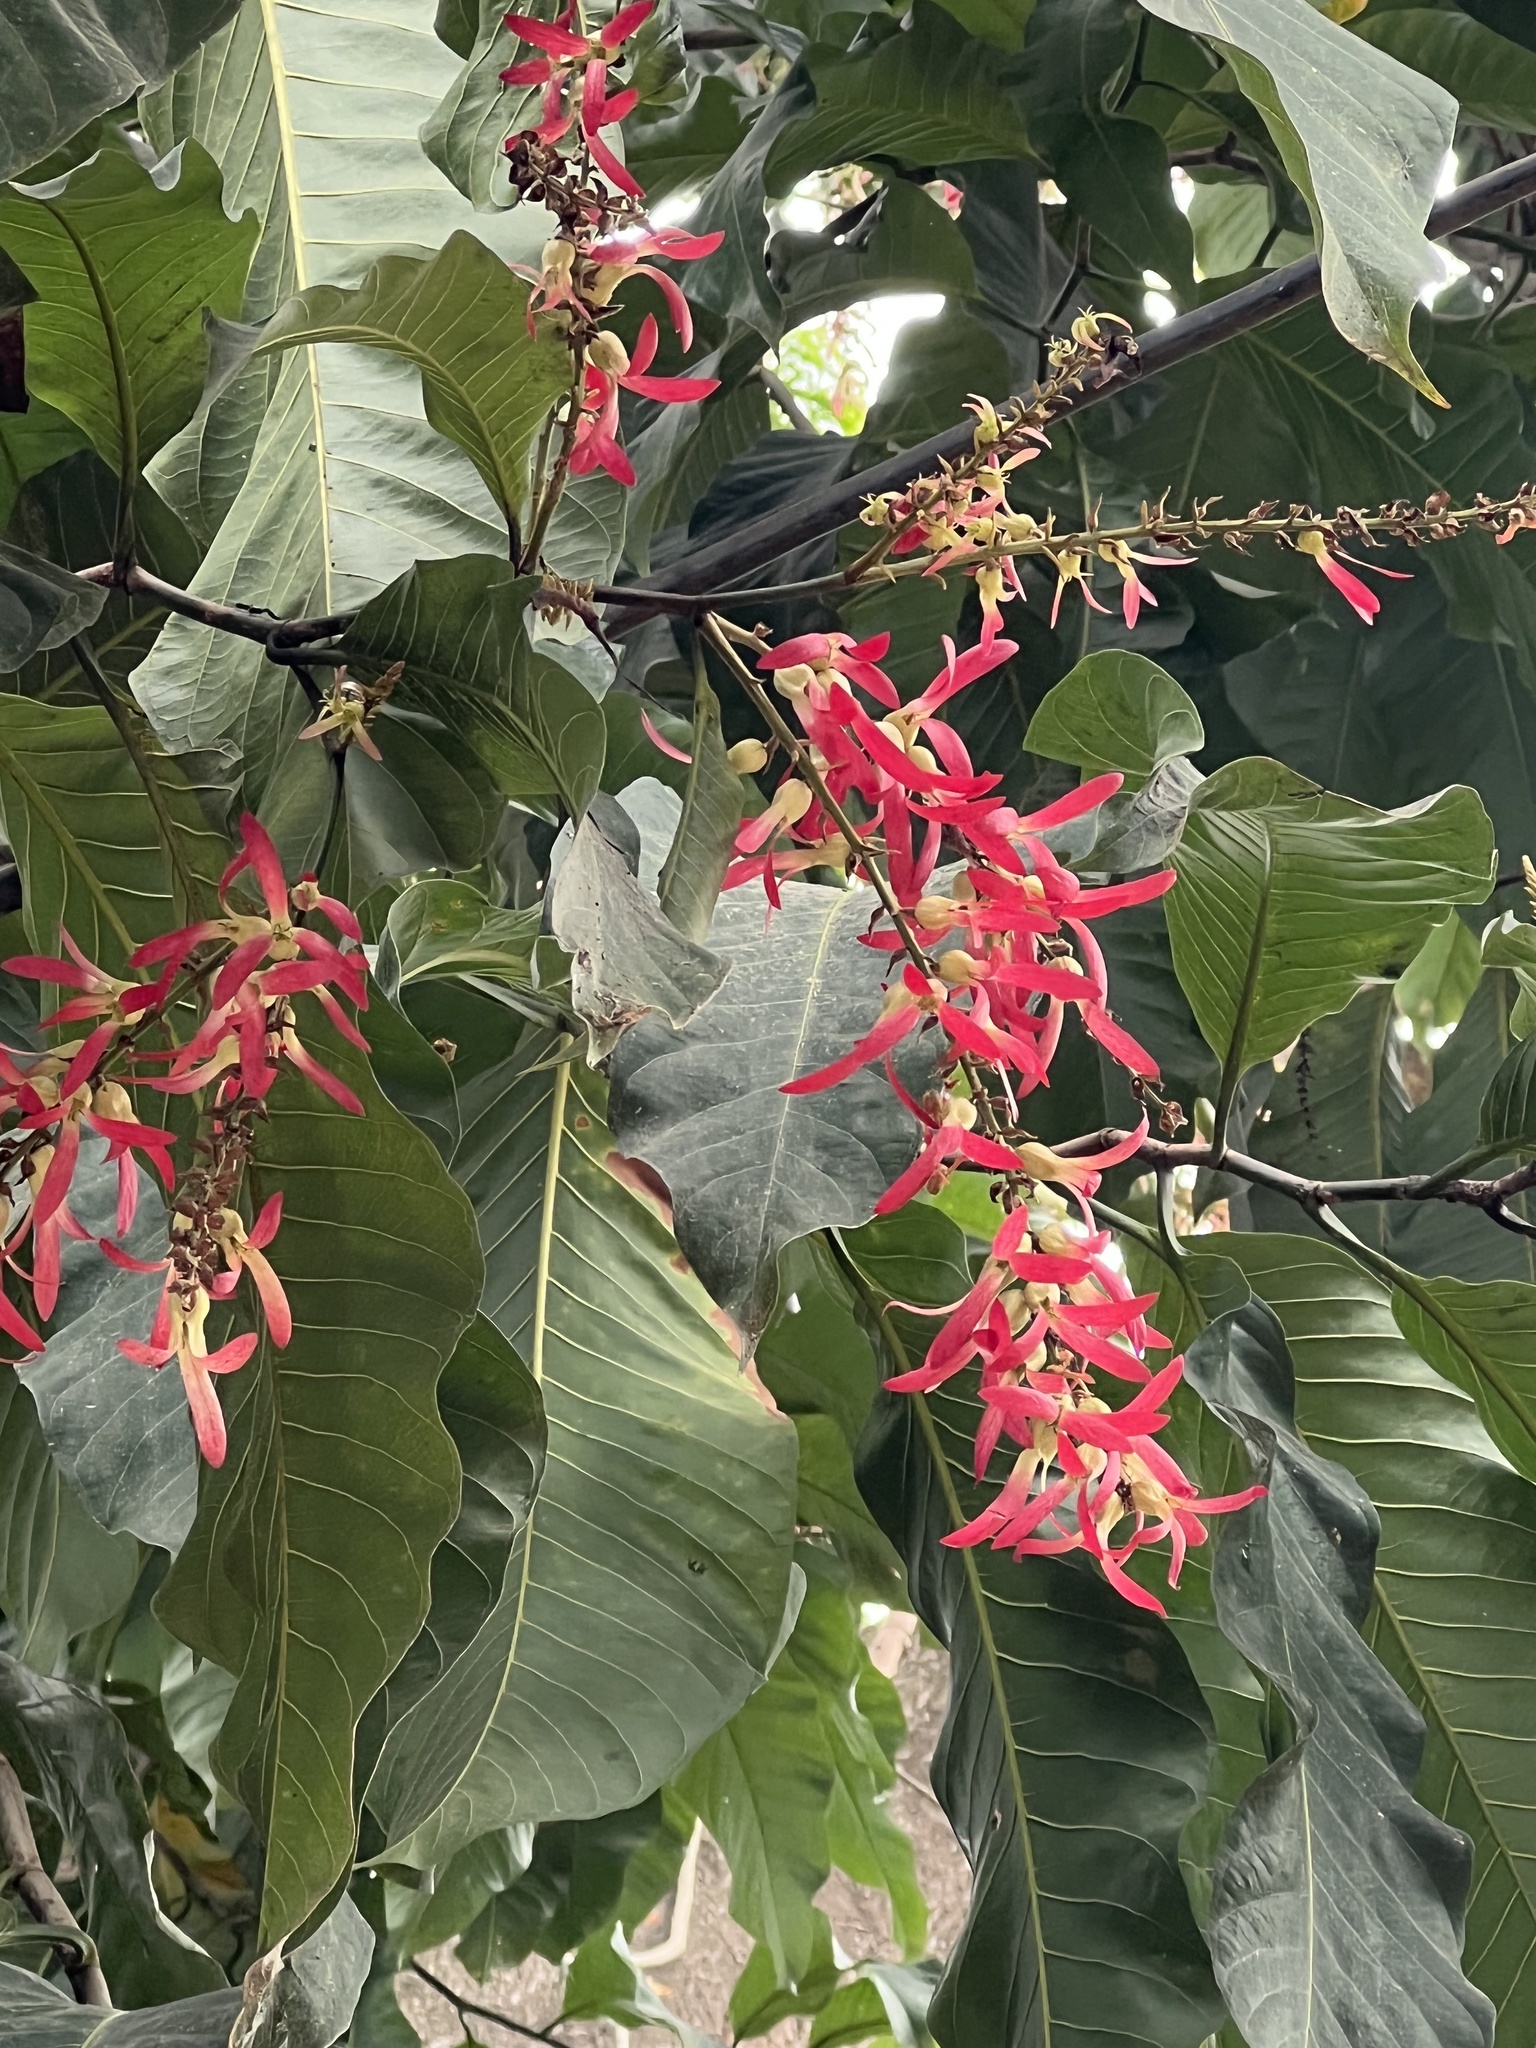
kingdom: Plantae
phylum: Tracheophyta
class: Magnoliopsida
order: Caryophyllales
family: Polygonaceae
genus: Triplaris
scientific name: Triplaris americana
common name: Ant-tree
